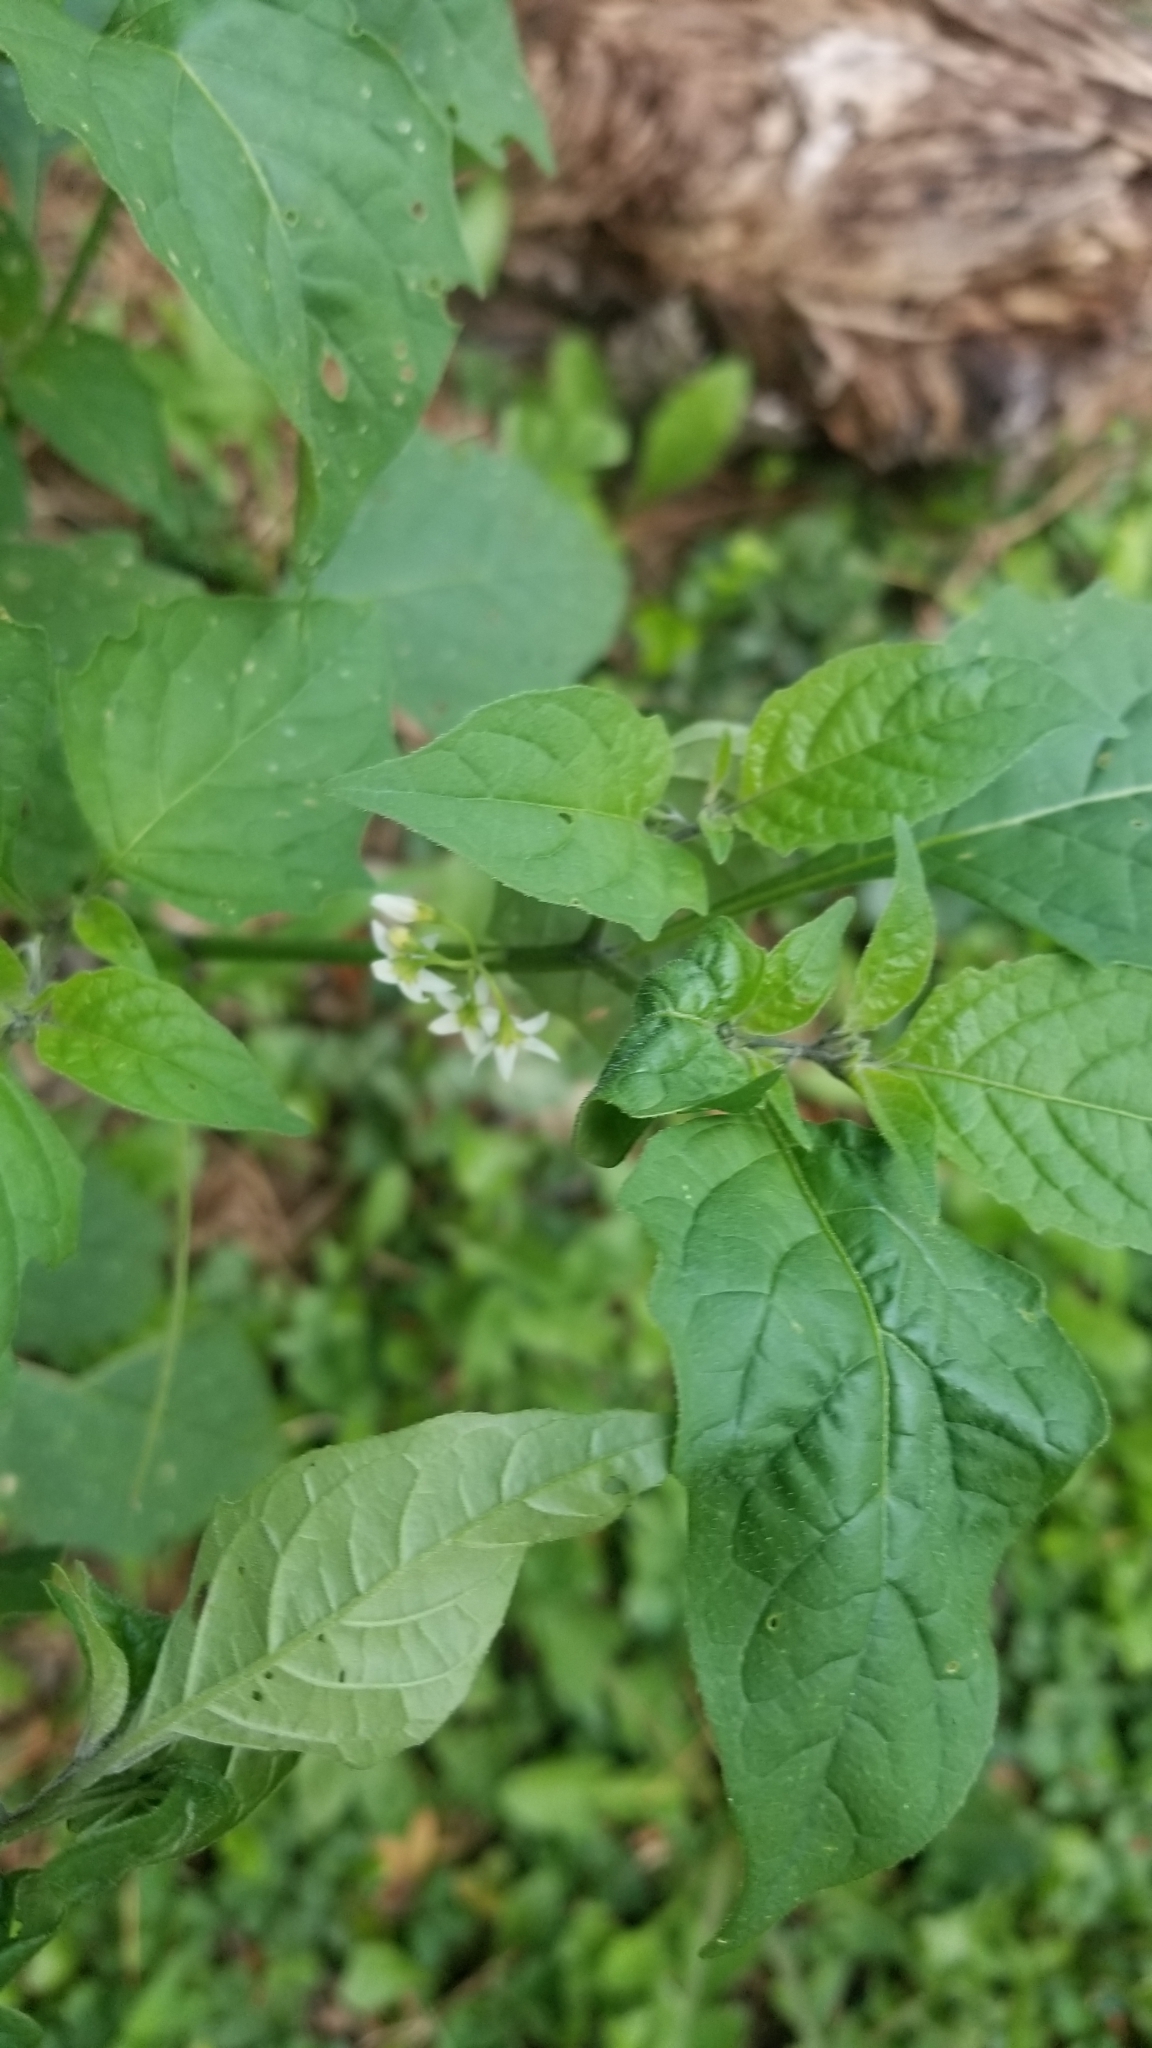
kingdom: Plantae
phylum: Tracheophyta
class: Magnoliopsida
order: Solanales
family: Solanaceae
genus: Solanum
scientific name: Solanum emulans
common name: Eastern black nightshade
